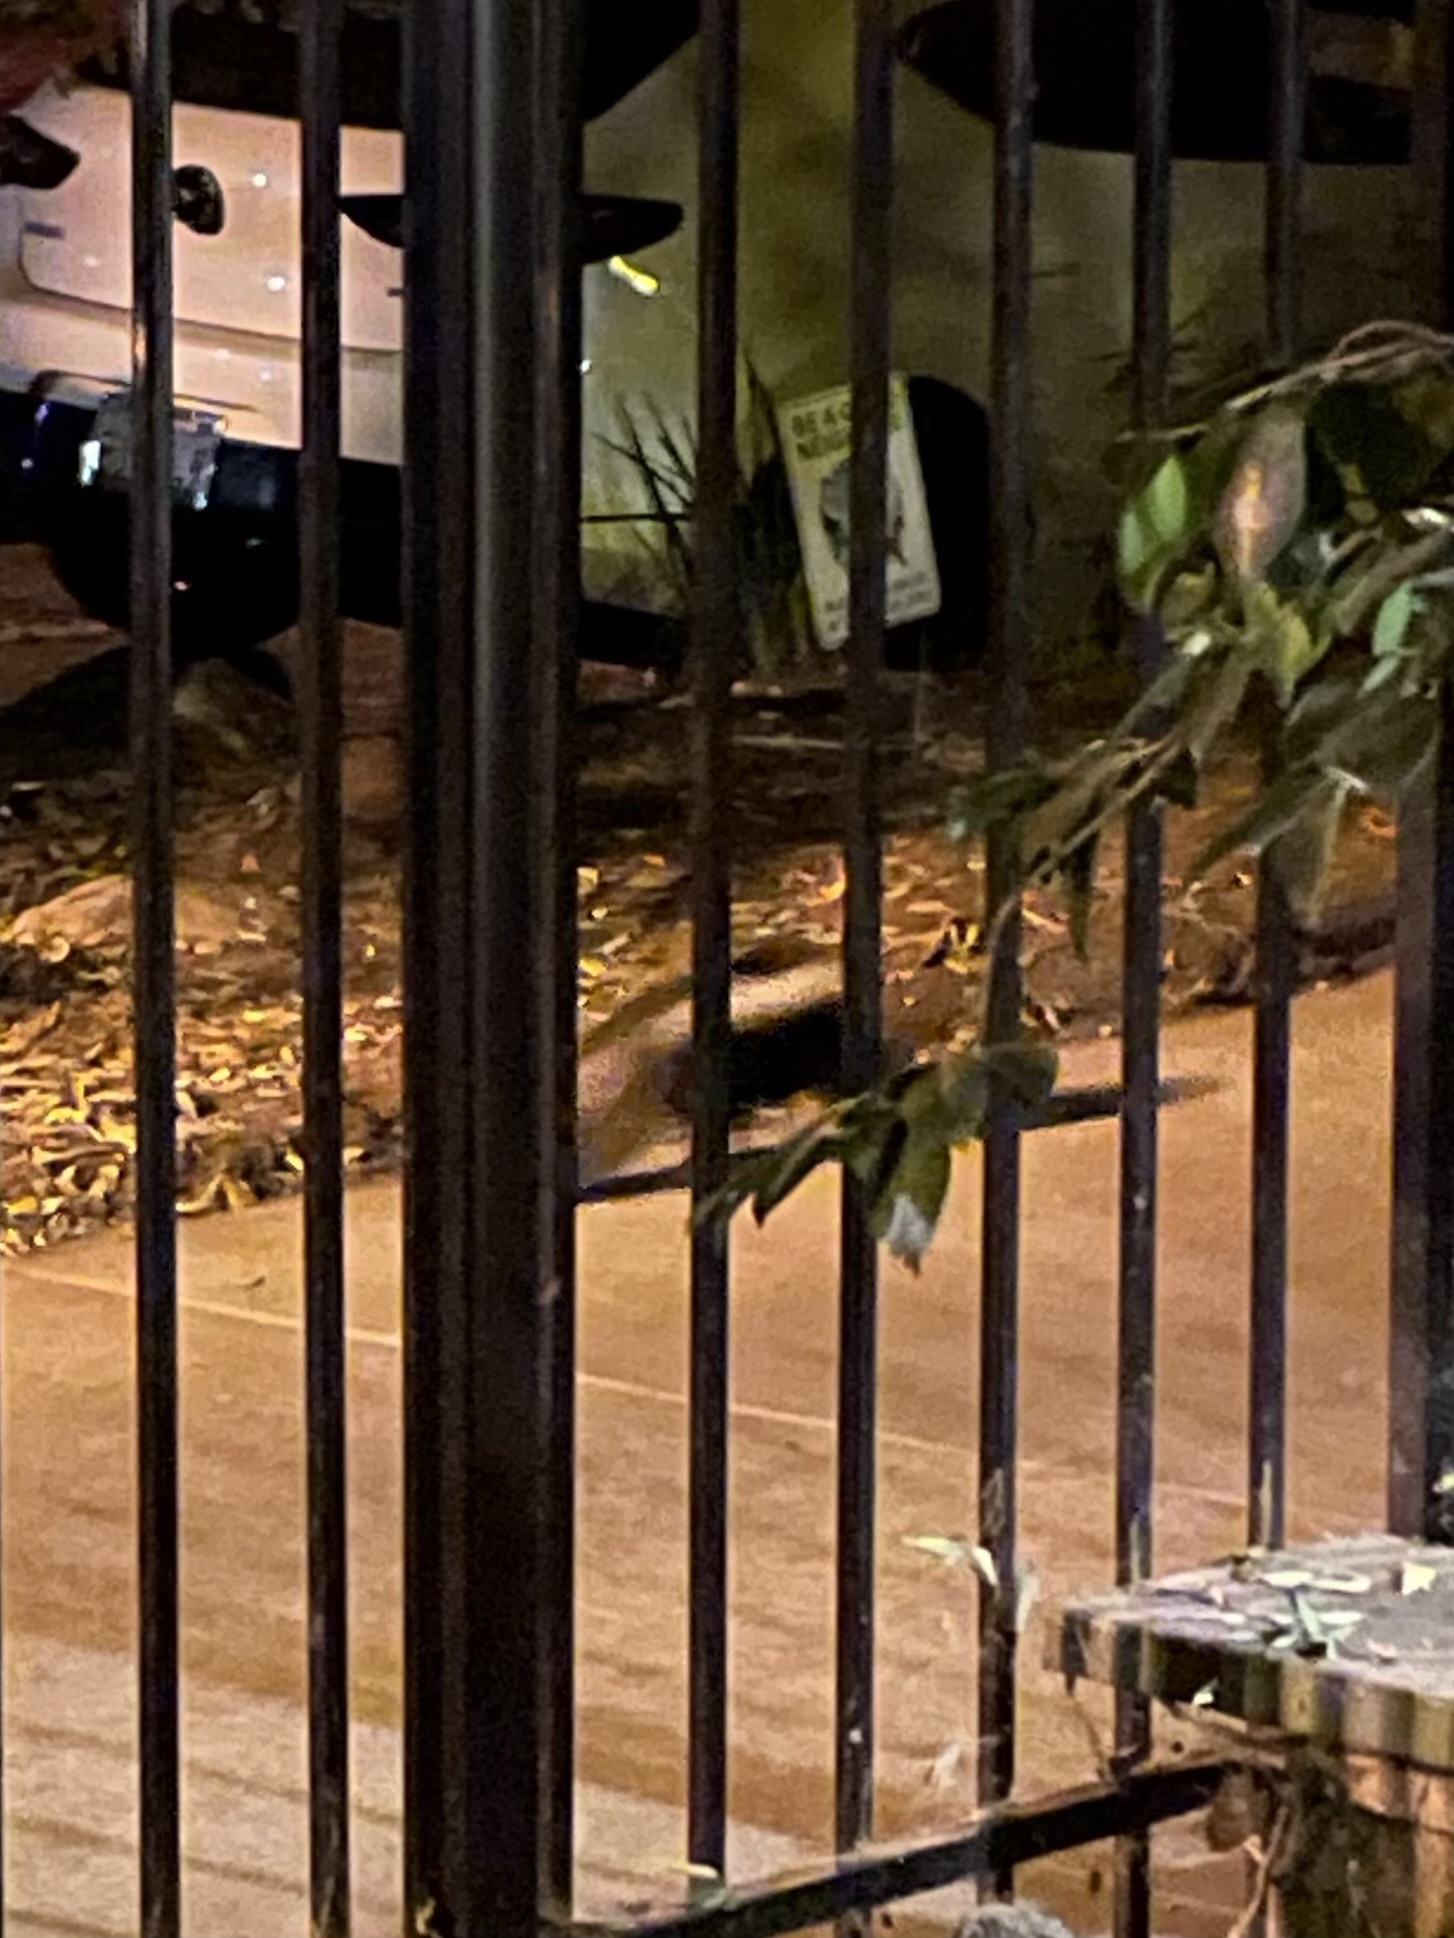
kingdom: Animalia
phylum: Chordata
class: Mammalia
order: Carnivora
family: Mephitidae
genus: Mephitis
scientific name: Mephitis mephitis
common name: Striped skunk
